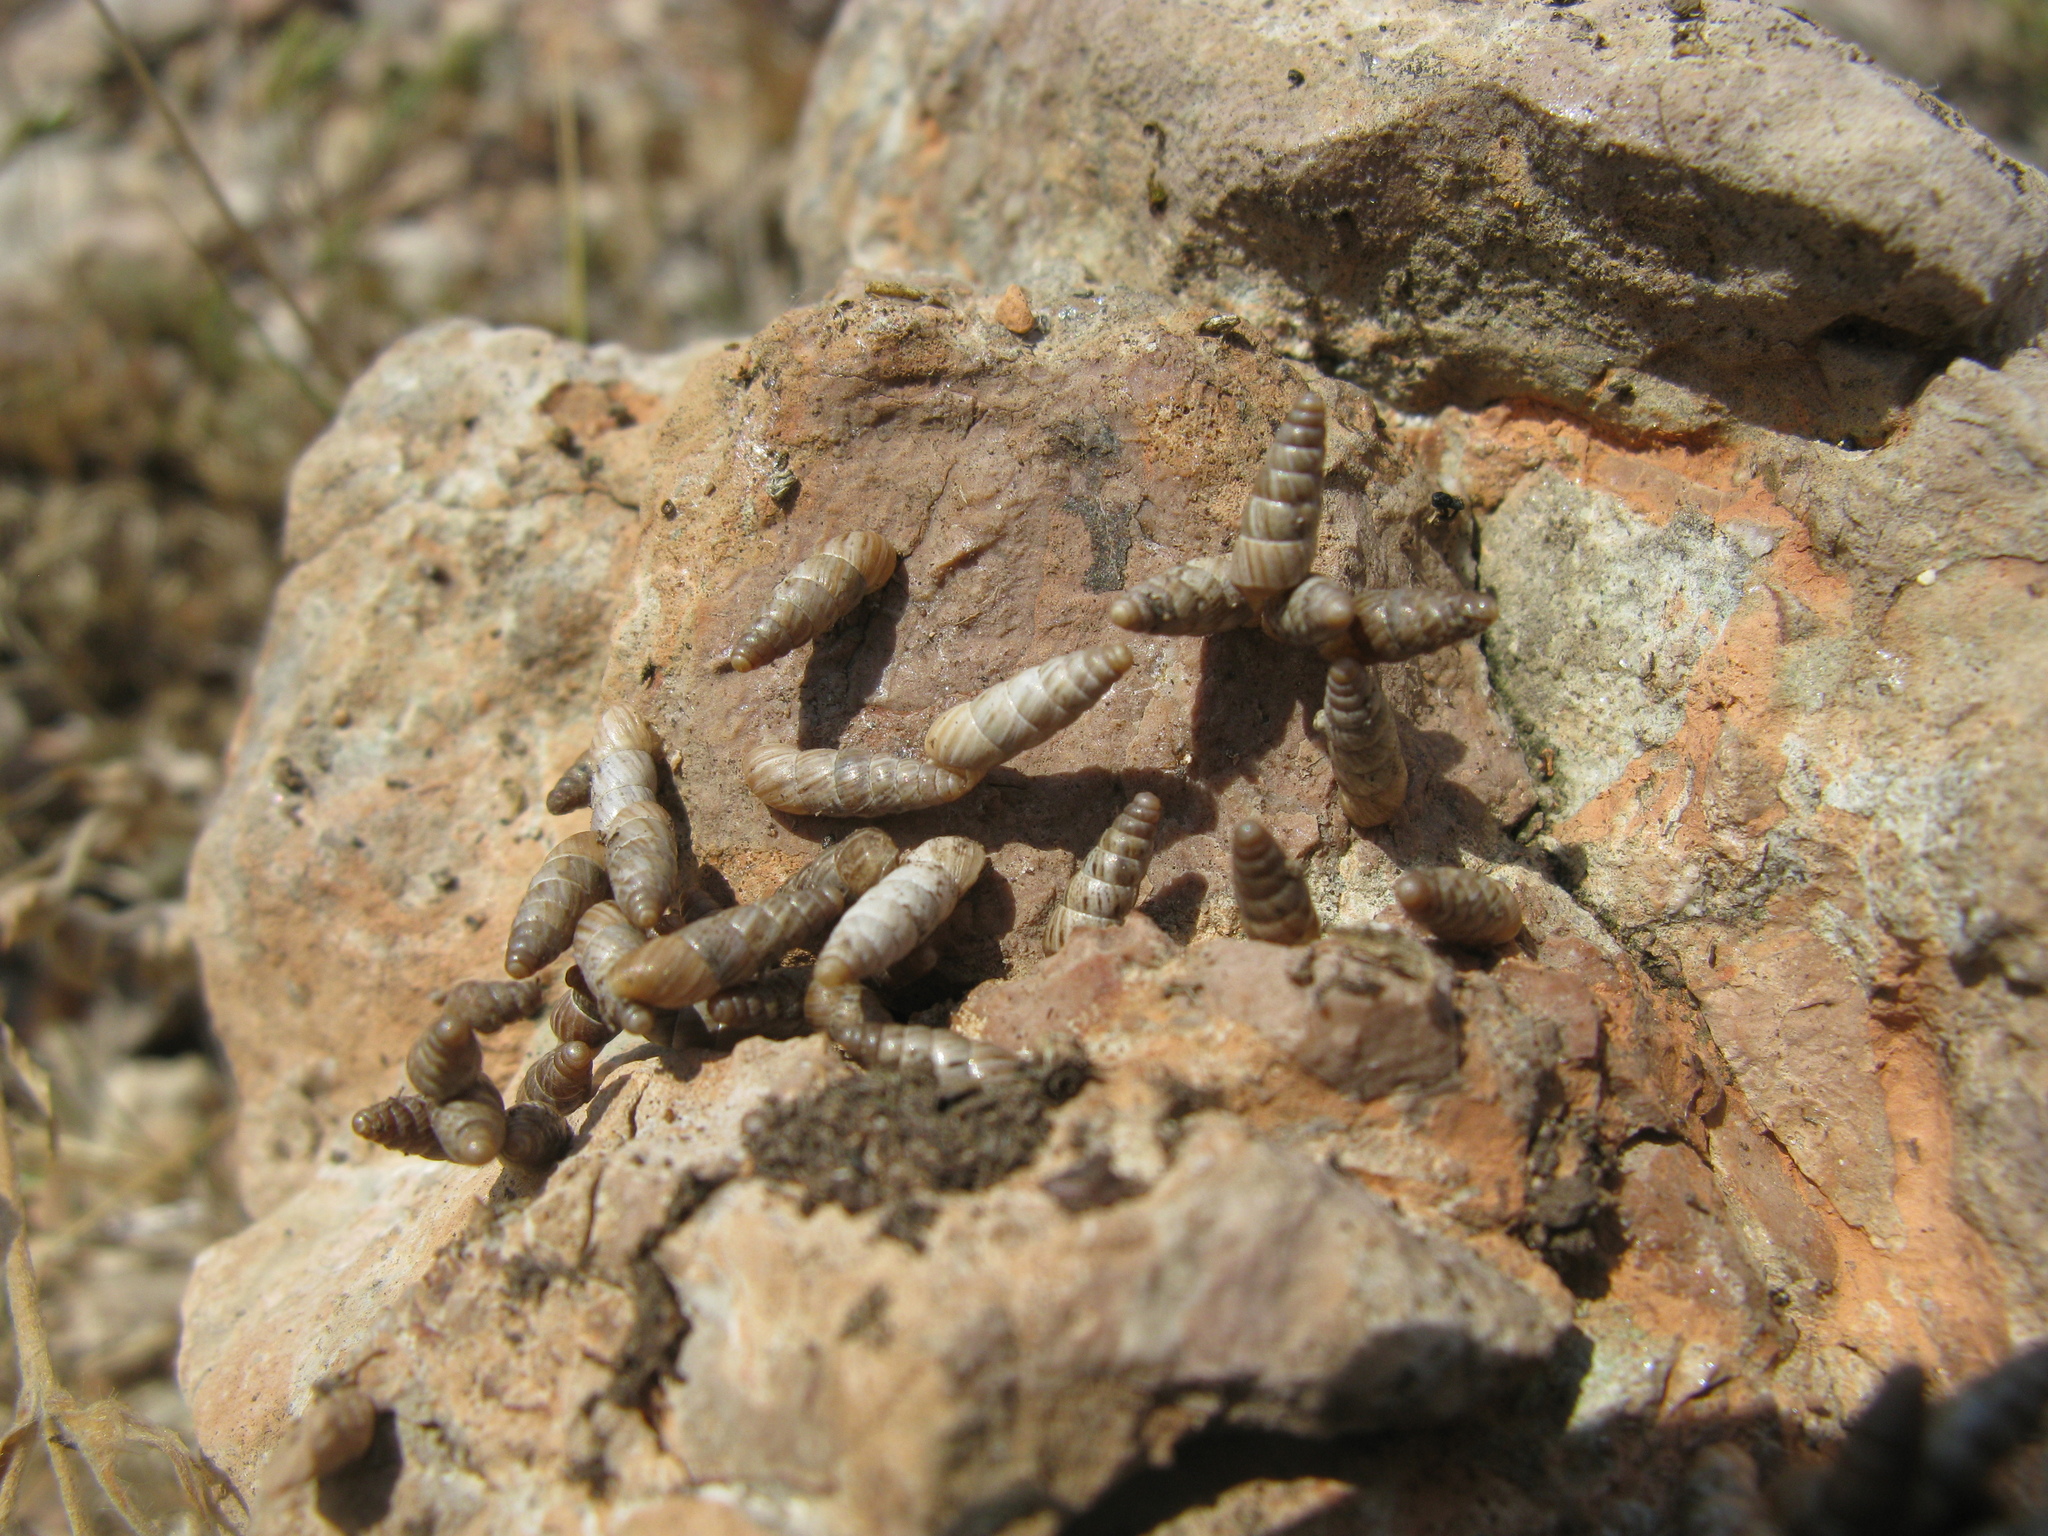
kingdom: Animalia
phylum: Mollusca
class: Gastropoda
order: Stylommatophora
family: Enidae
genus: Brephulopsis
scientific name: Brephulopsis subulata
